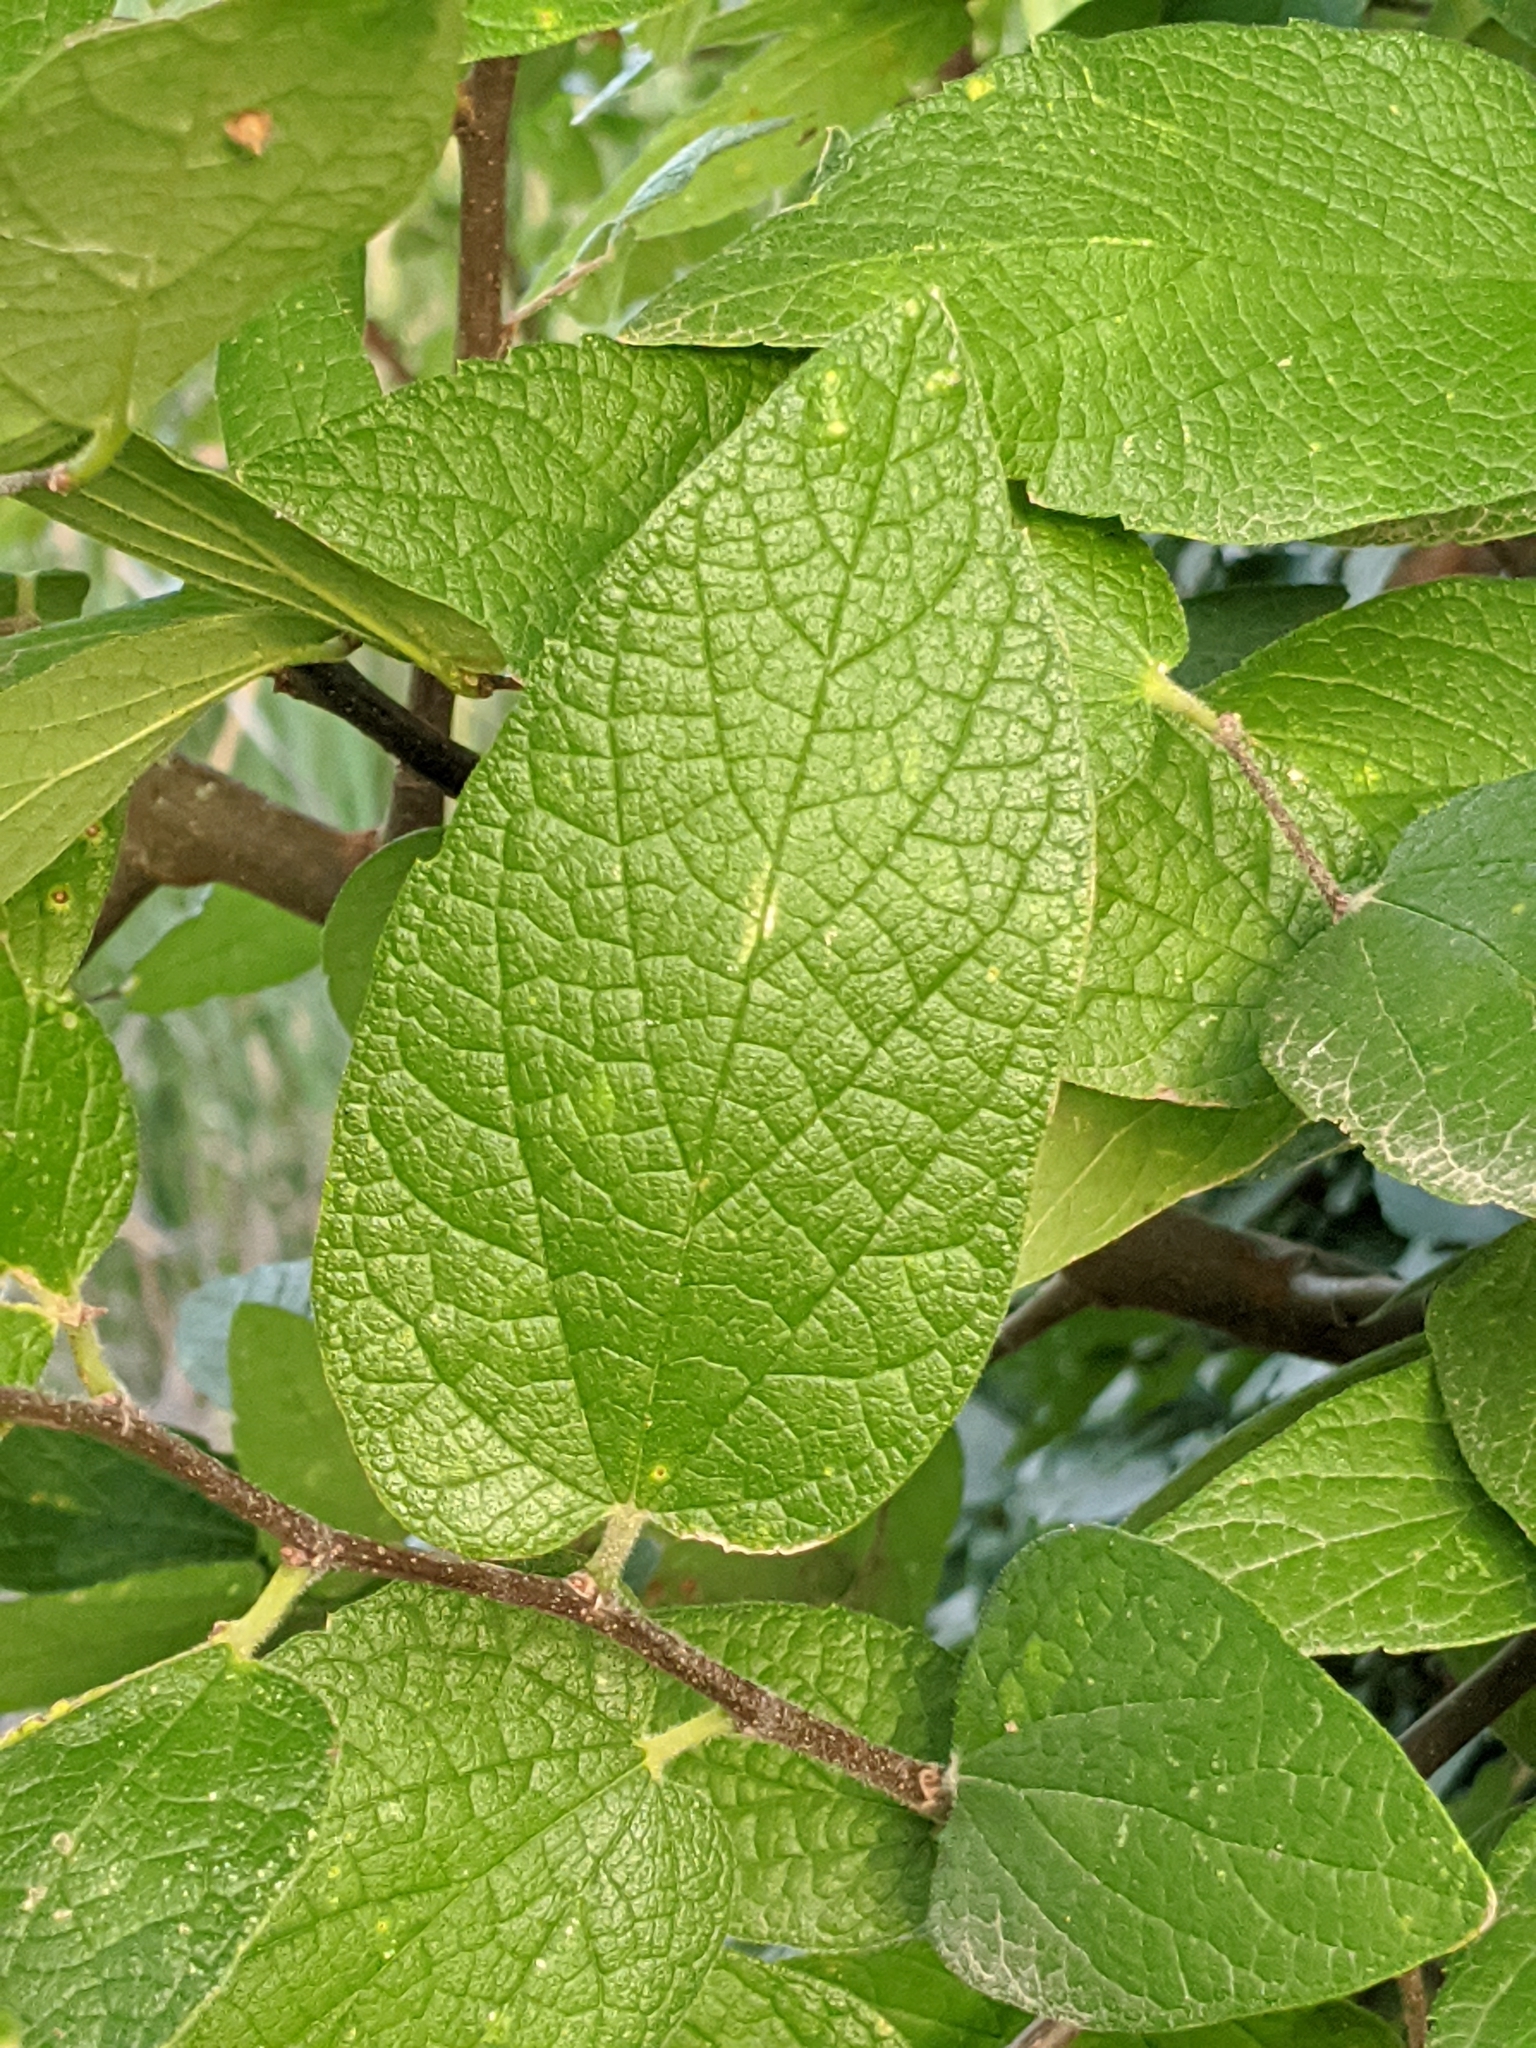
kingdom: Plantae
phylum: Tracheophyta
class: Magnoliopsida
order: Rosales
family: Cannabaceae
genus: Celtis
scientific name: Celtis reticulata
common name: Netleaf hackberry
